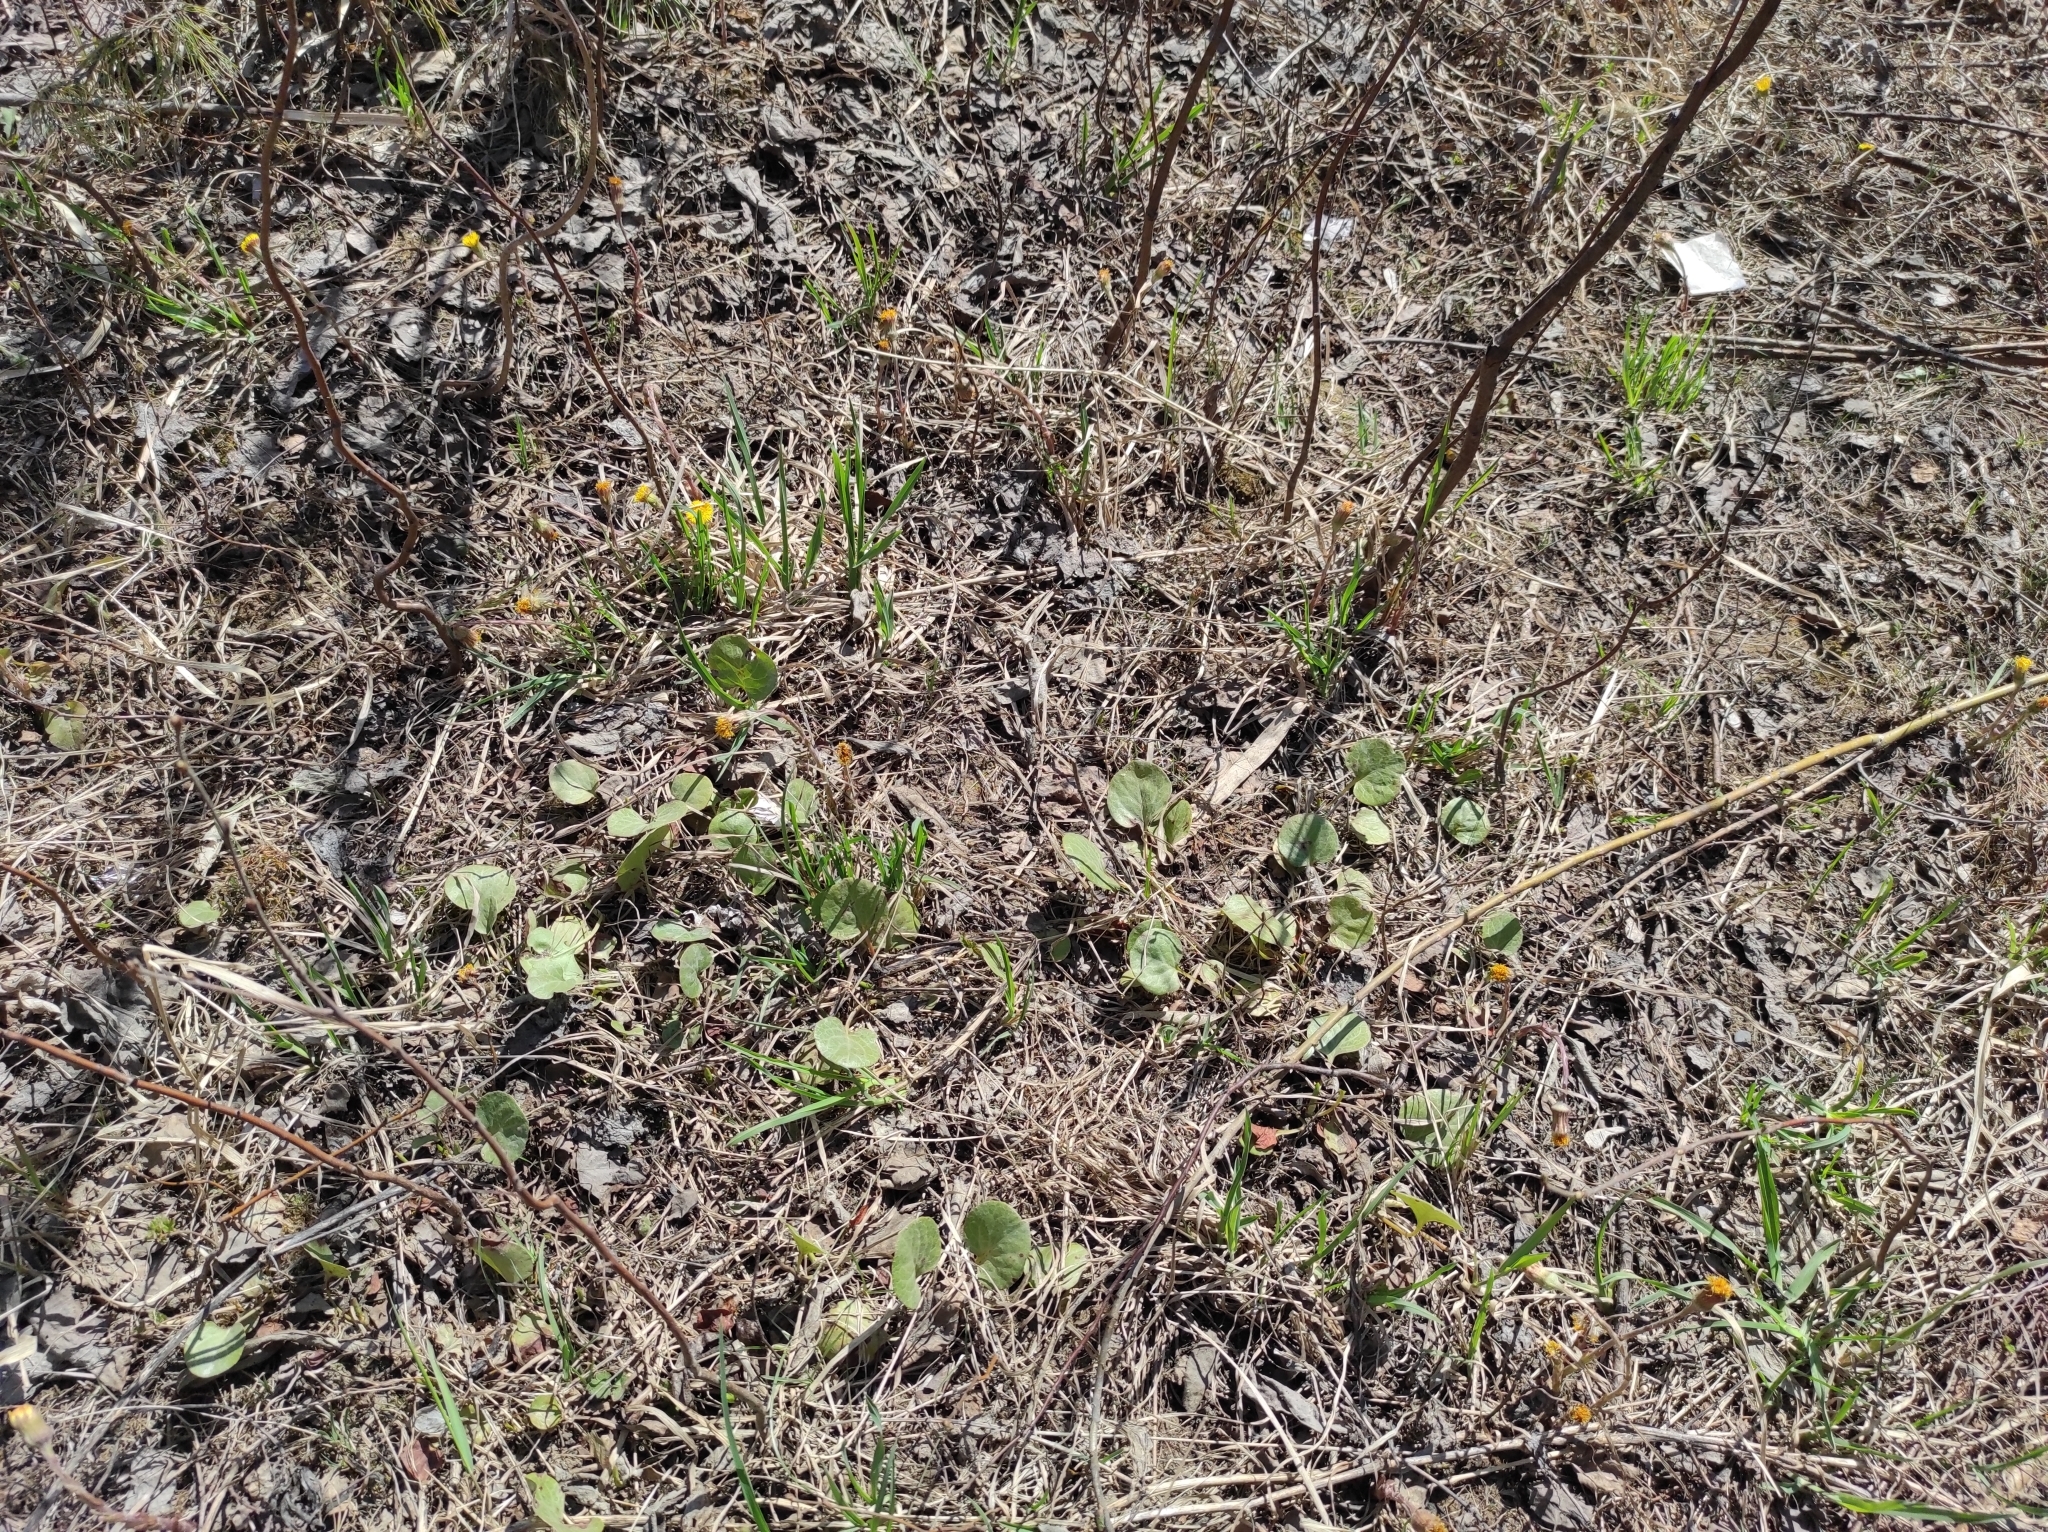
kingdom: Plantae
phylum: Tracheophyta
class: Magnoliopsida
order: Asterales
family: Asteraceae
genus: Tussilago
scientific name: Tussilago farfara
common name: Coltsfoot
